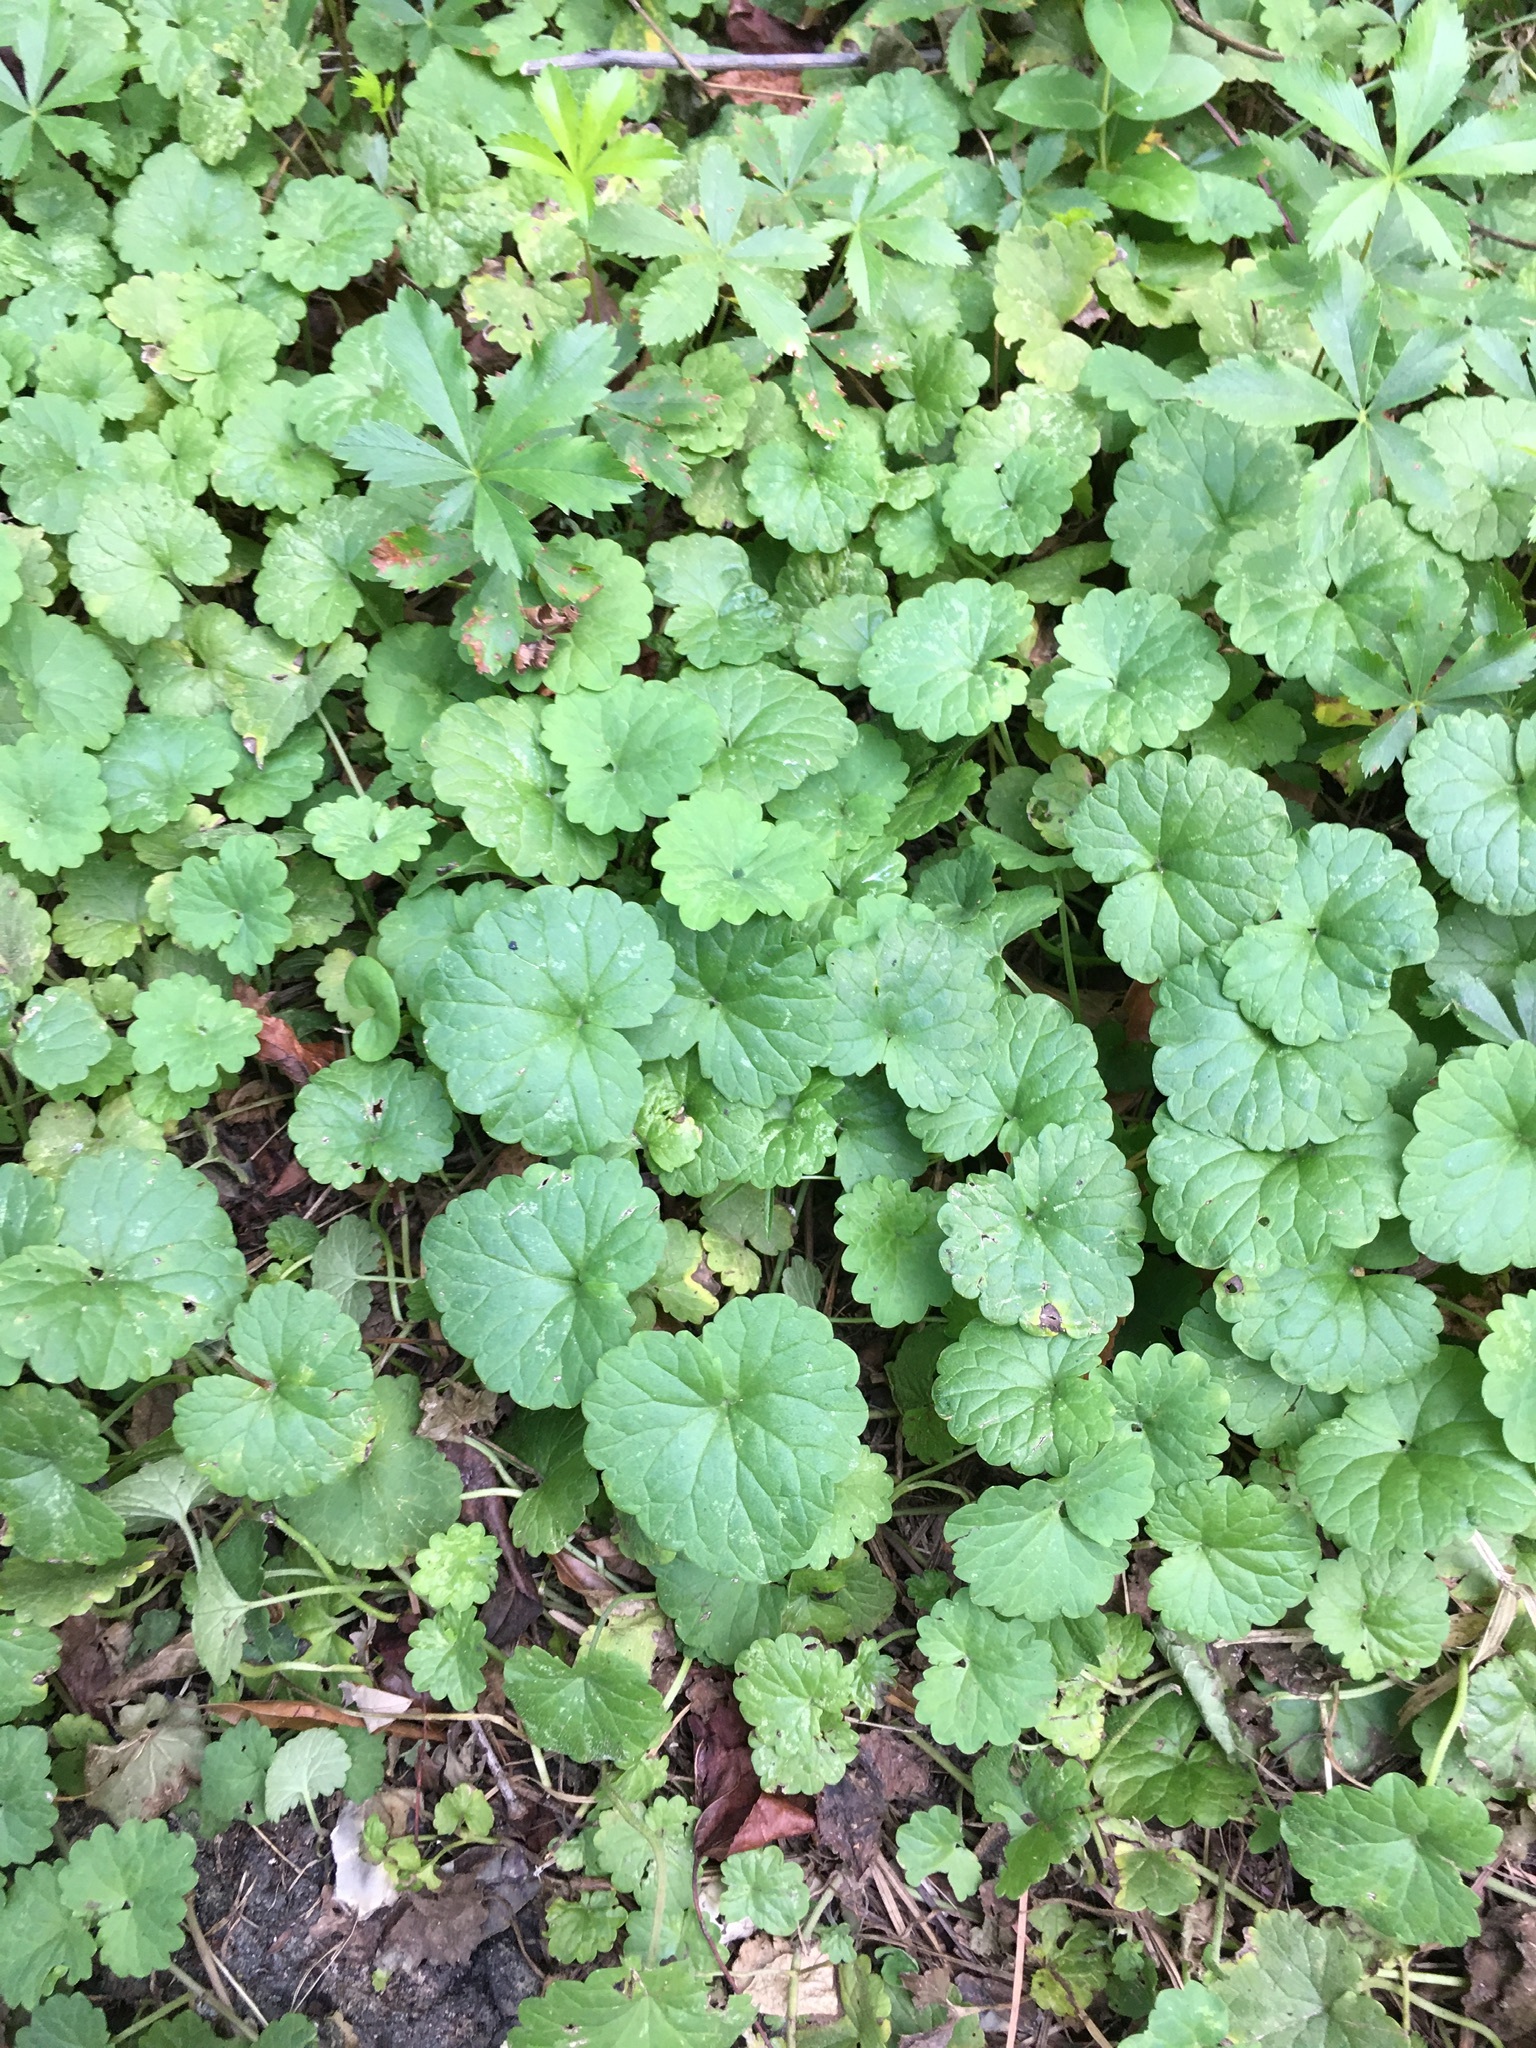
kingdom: Plantae
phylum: Tracheophyta
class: Magnoliopsida
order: Lamiales
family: Lamiaceae
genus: Glechoma
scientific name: Glechoma hederacea
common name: Ground ivy
